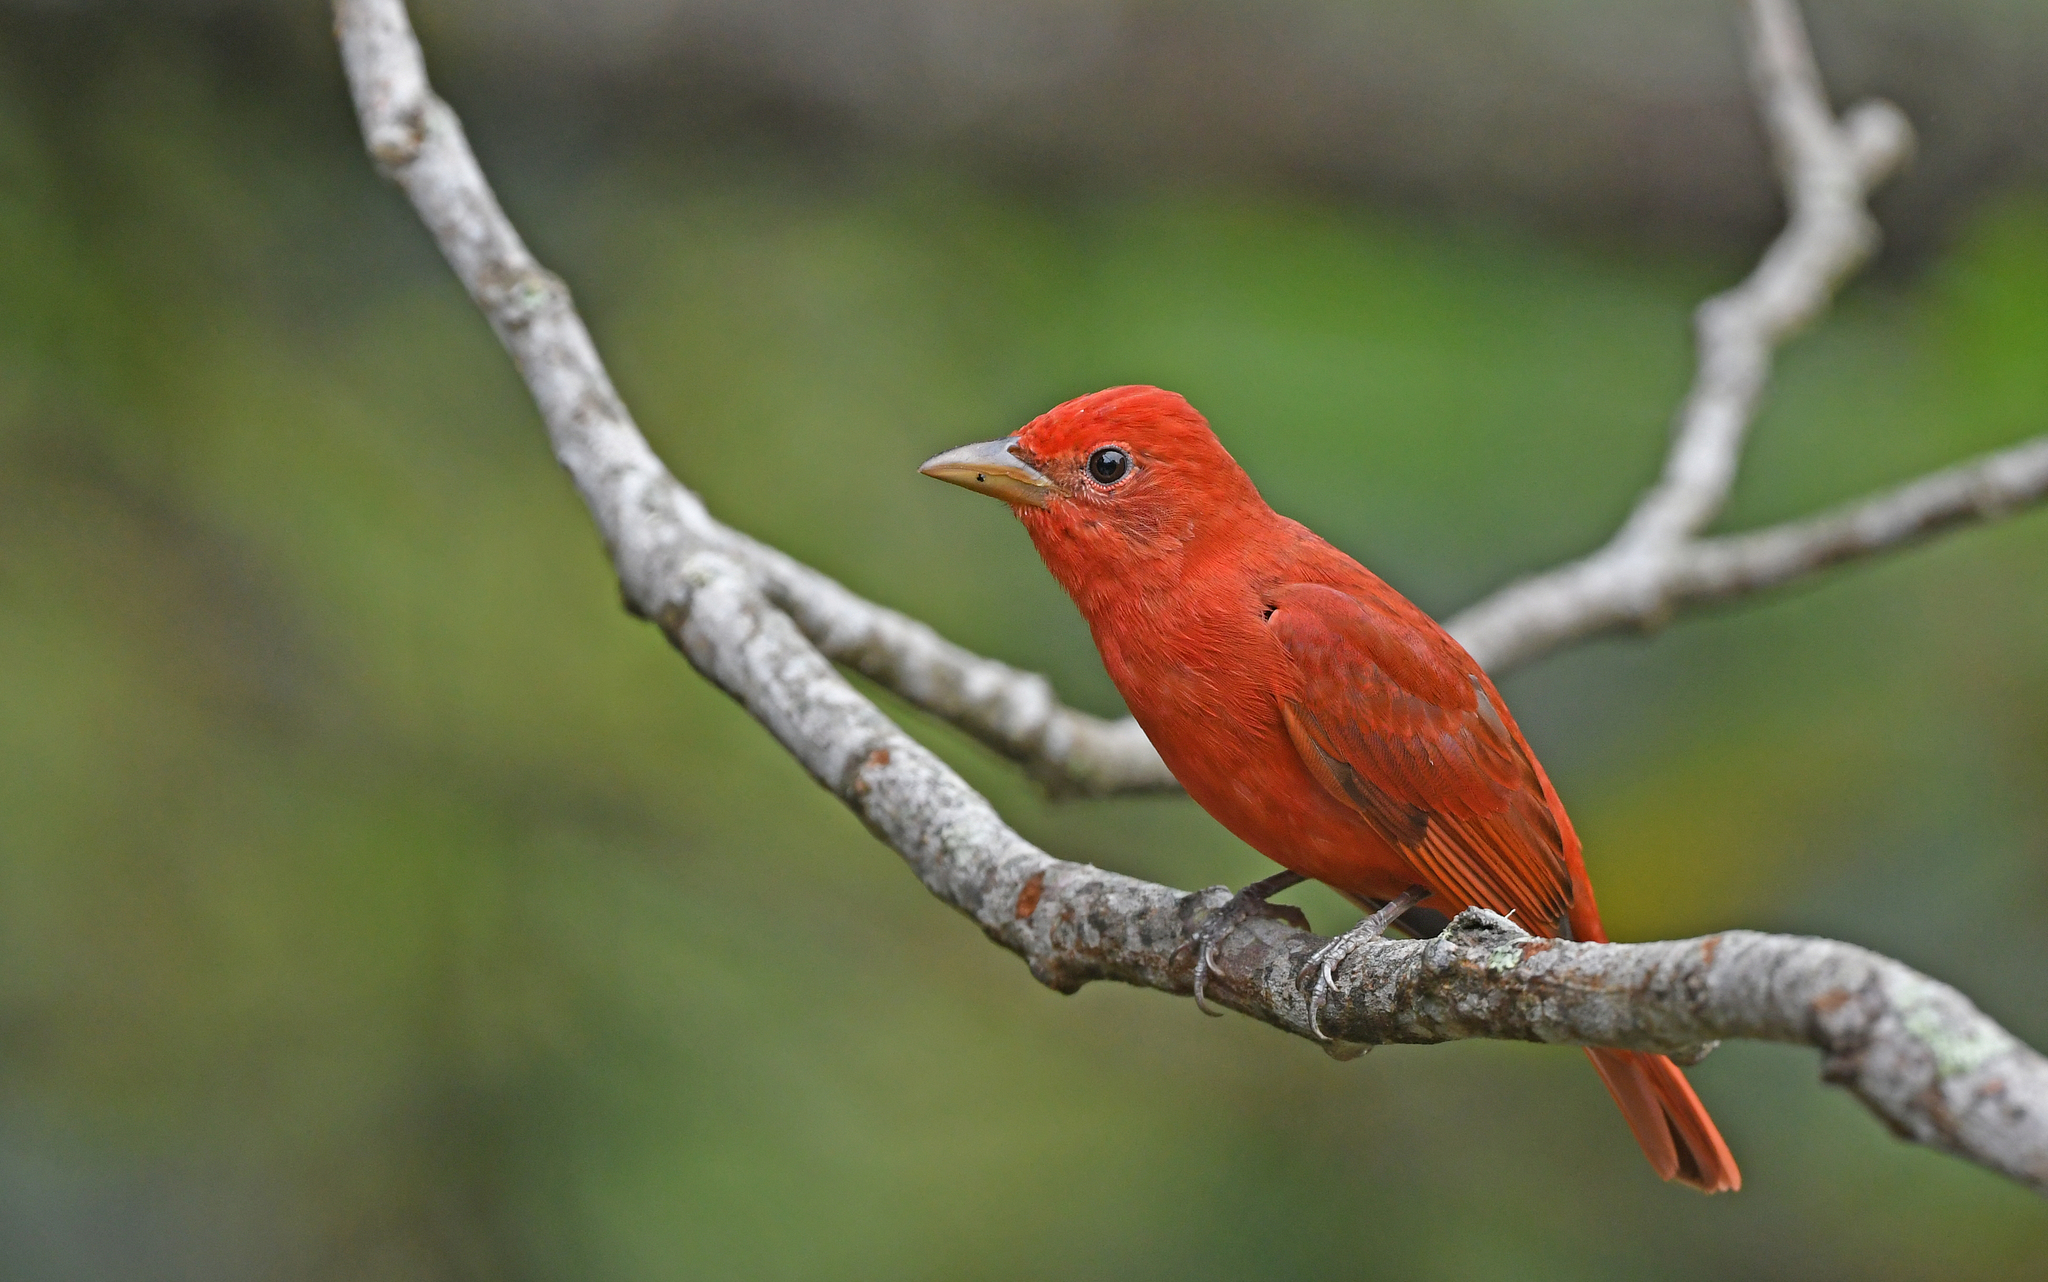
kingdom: Animalia
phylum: Chordata
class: Aves
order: Passeriformes
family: Cardinalidae
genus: Piranga
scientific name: Piranga rubra
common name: Summer tanager
